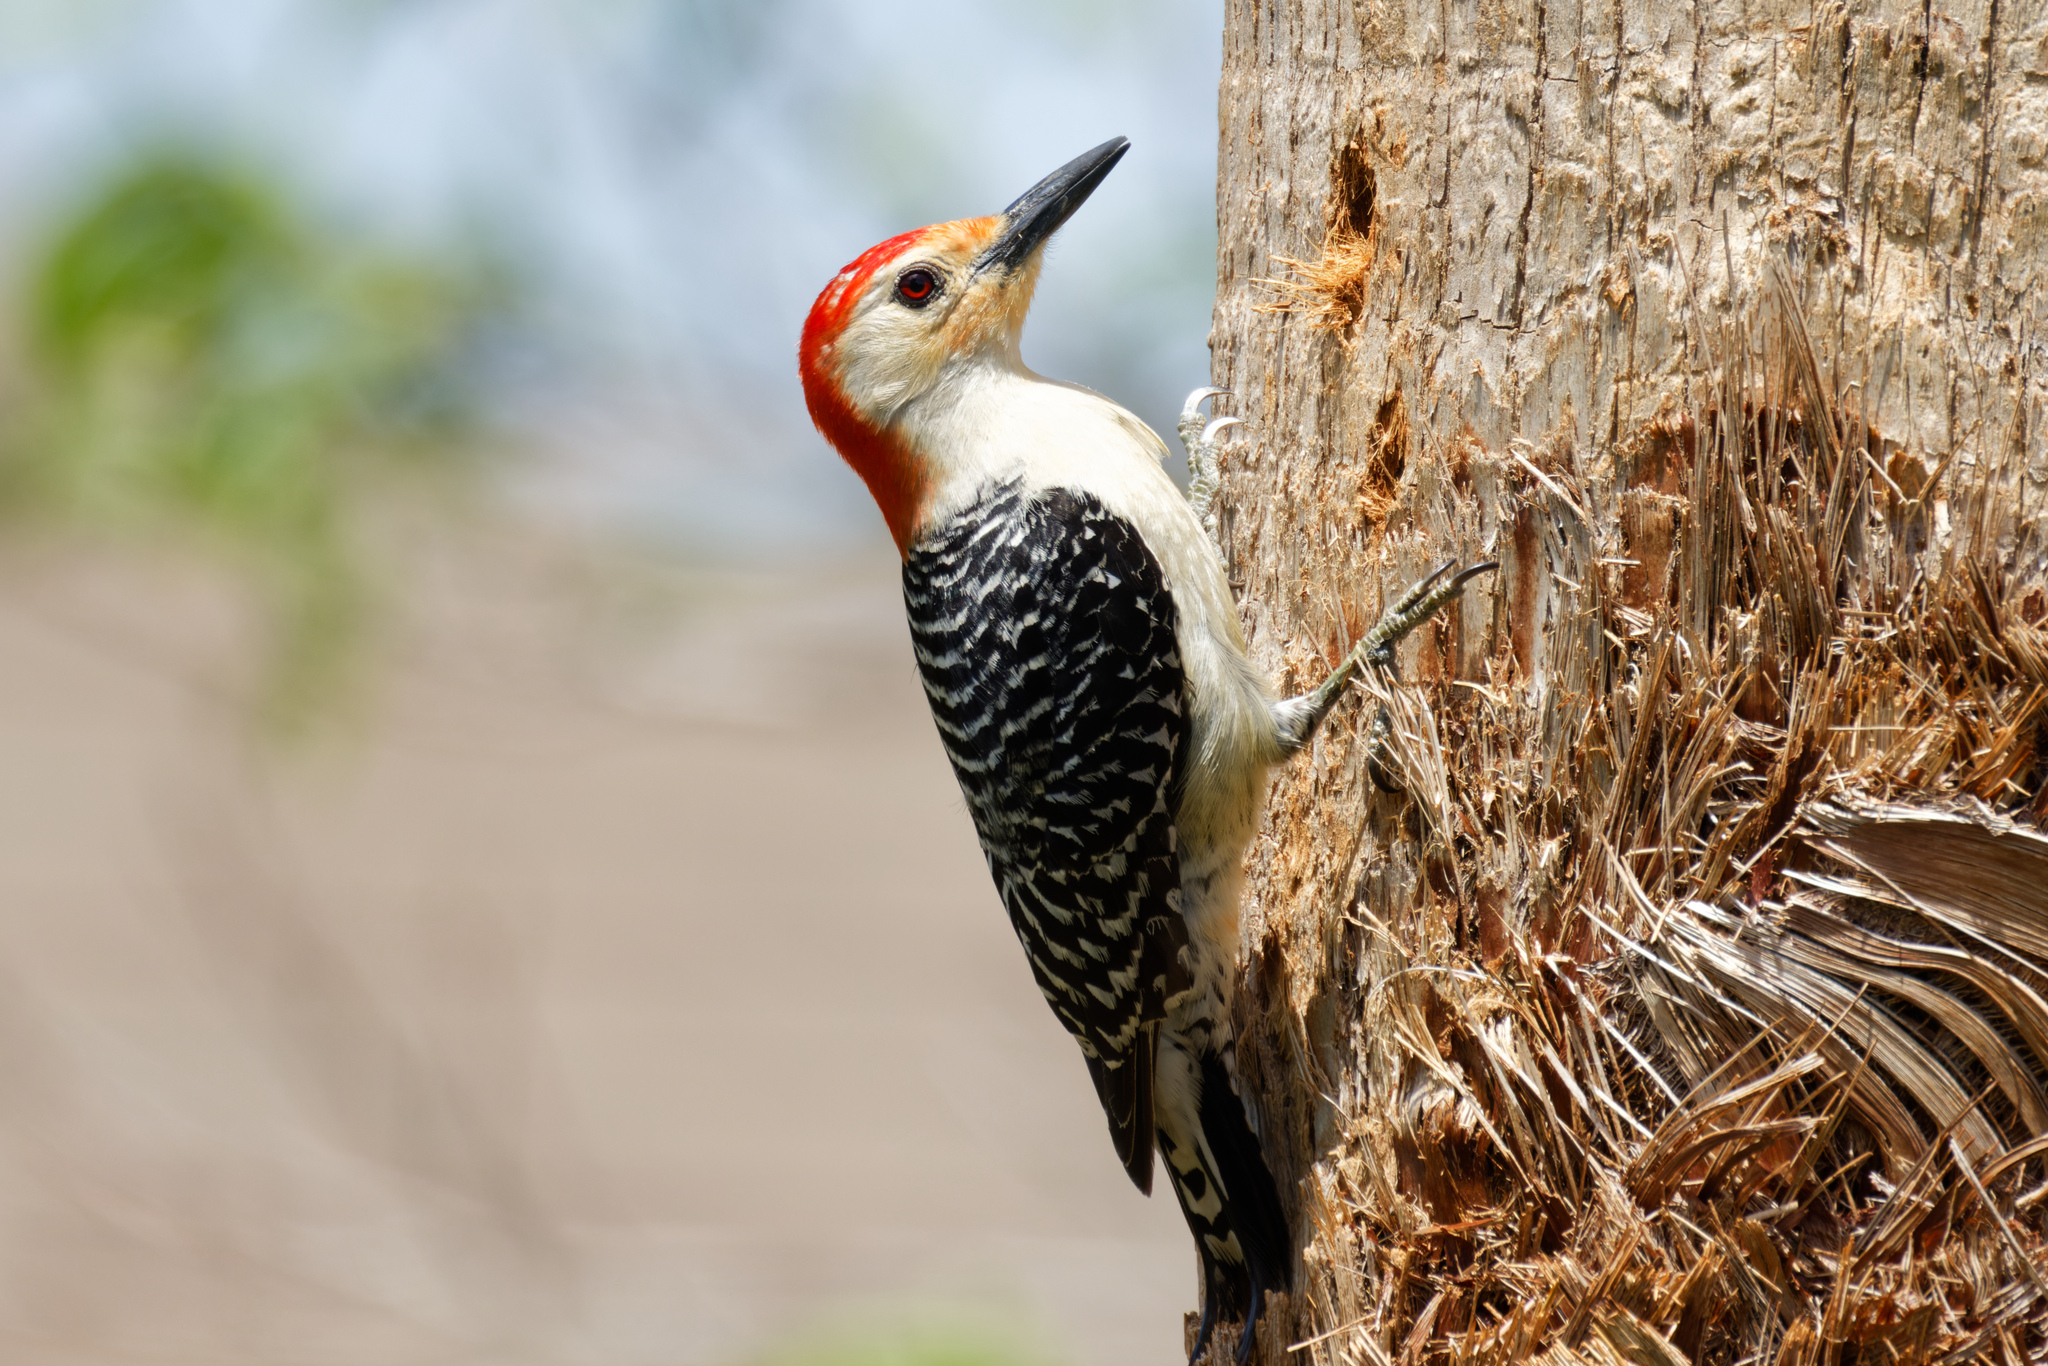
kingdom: Animalia
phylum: Chordata
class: Aves
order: Piciformes
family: Picidae
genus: Melanerpes
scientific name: Melanerpes carolinus
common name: Red-bellied woodpecker
